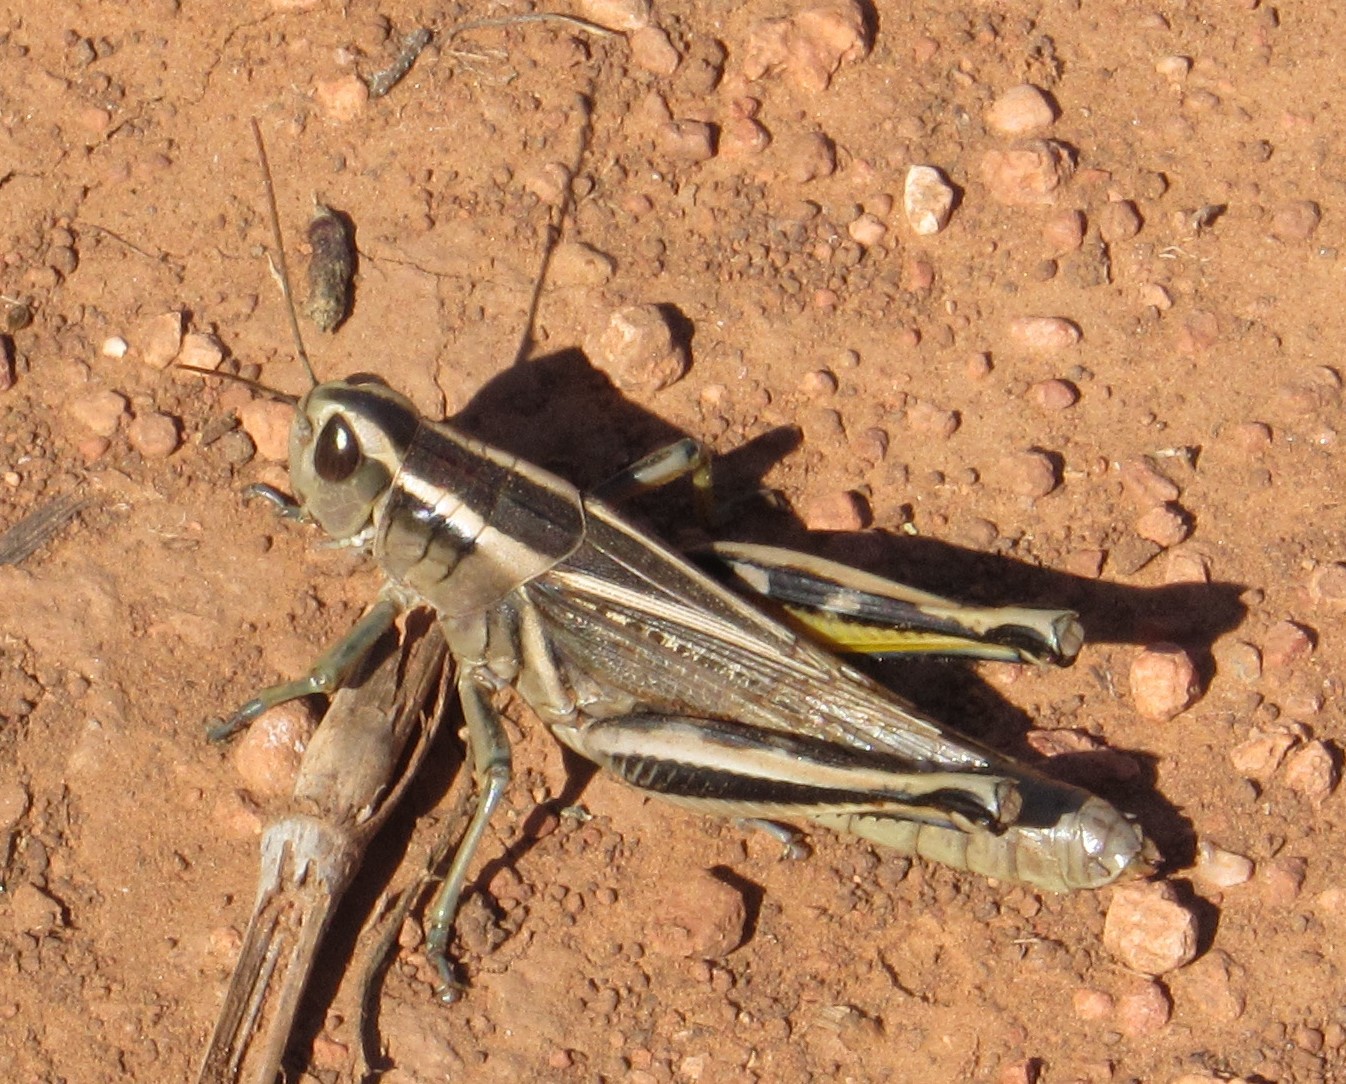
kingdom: Animalia
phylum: Arthropoda
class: Insecta
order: Orthoptera
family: Acrididae
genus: Melanoplus
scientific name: Melanoplus bivittatus
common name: Two-striped grasshopper
